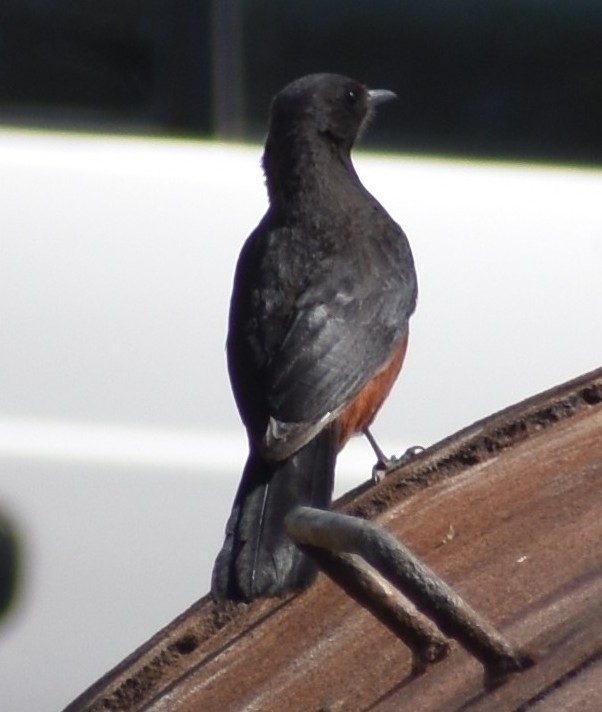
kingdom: Animalia
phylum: Chordata
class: Aves
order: Passeriformes
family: Muscicapidae
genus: Thamnolaea
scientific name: Thamnolaea cinnamomeiventris
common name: Mocking cliff chat
